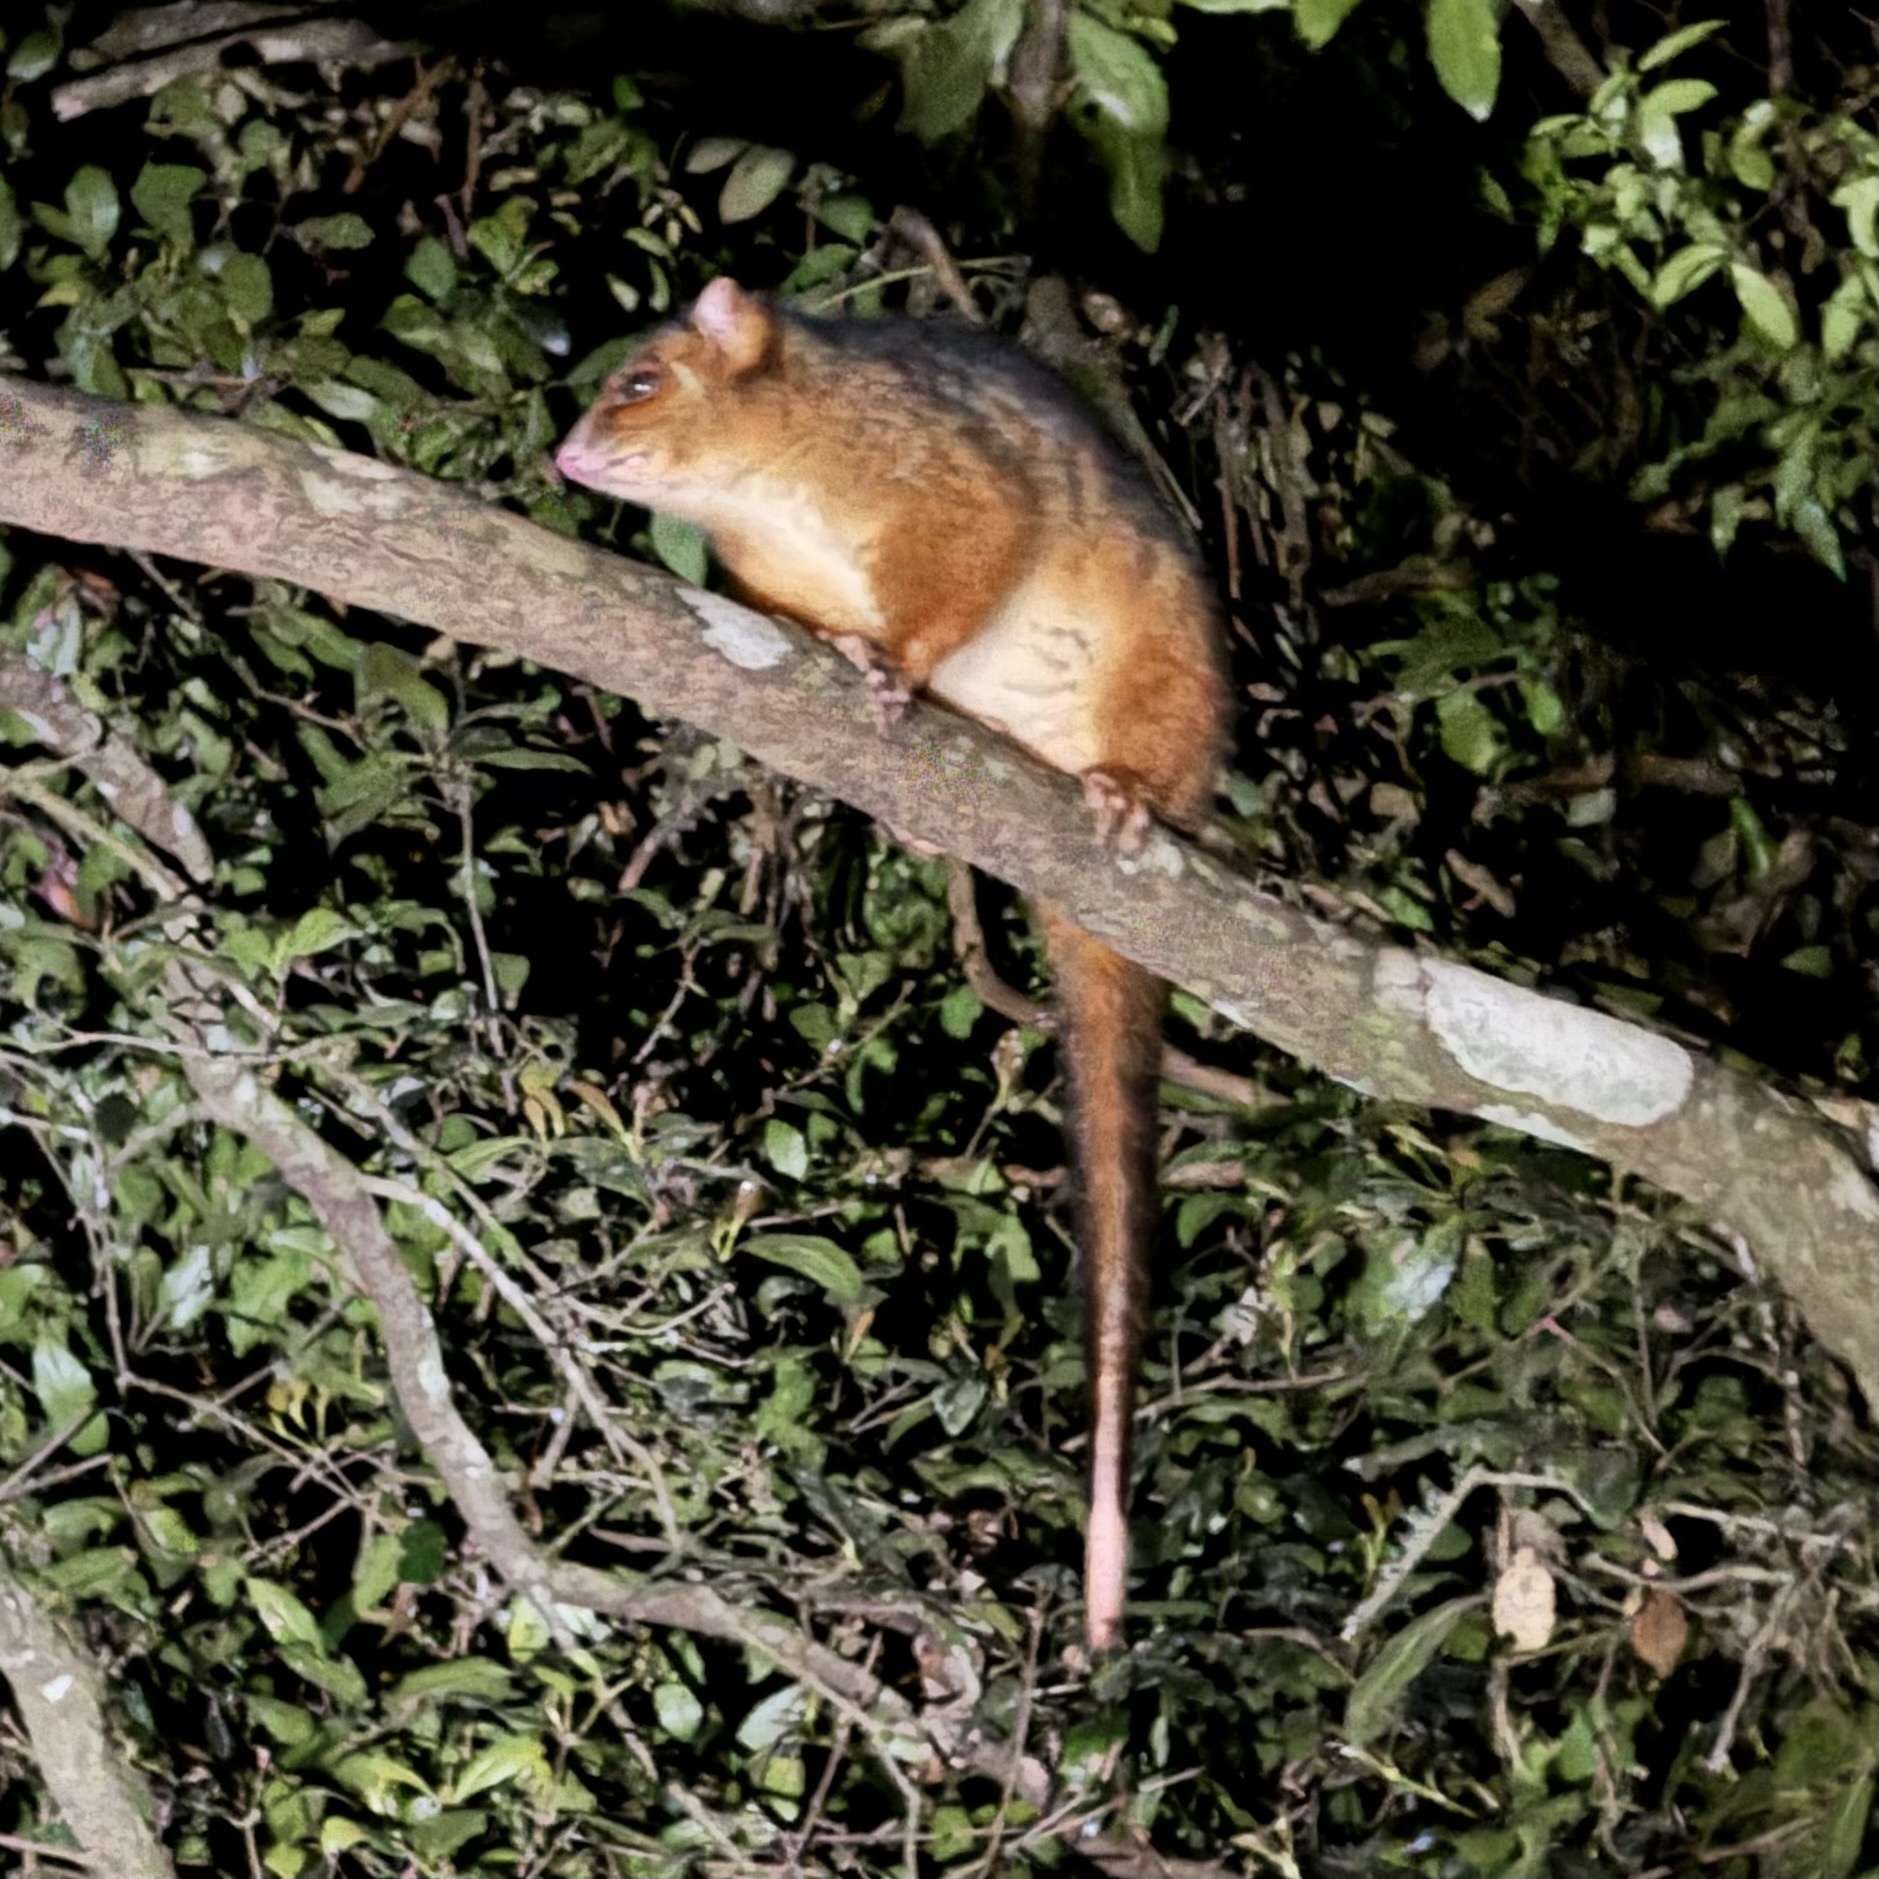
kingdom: Animalia
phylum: Chordata
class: Mammalia
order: Diprotodontia
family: Pseudocheiridae
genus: Pseudocheirus
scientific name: Pseudocheirus peregrinus
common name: Common ringtail possum
